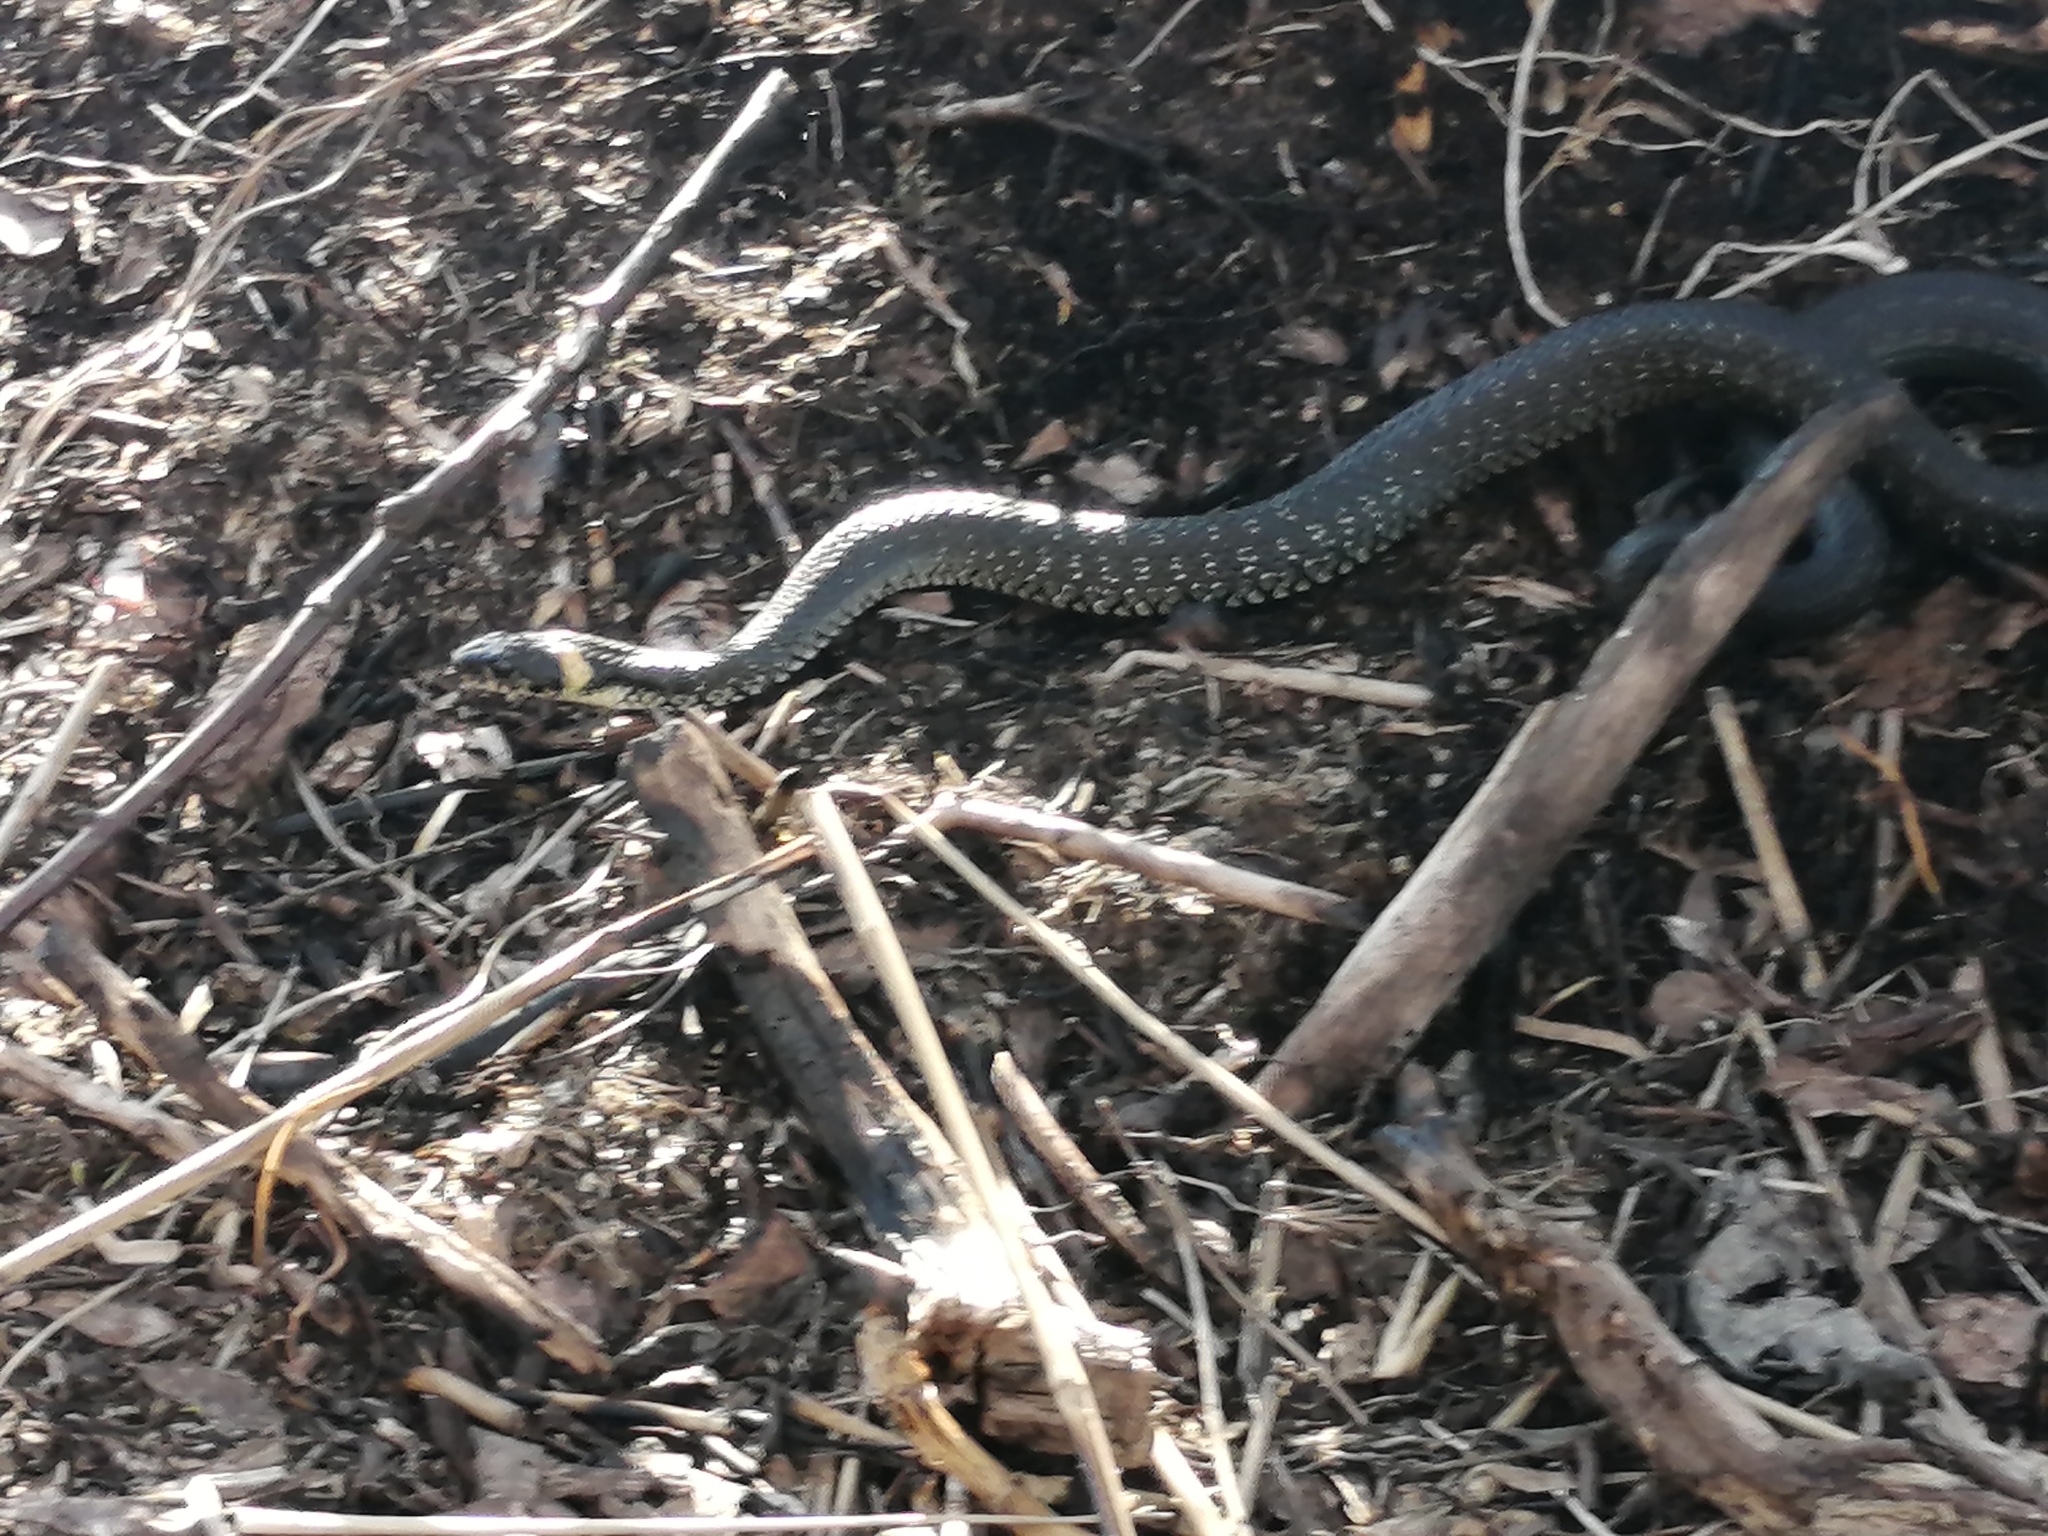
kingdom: Animalia
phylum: Chordata
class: Squamata
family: Colubridae
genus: Natrix
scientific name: Natrix natrix
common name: Grass snake
